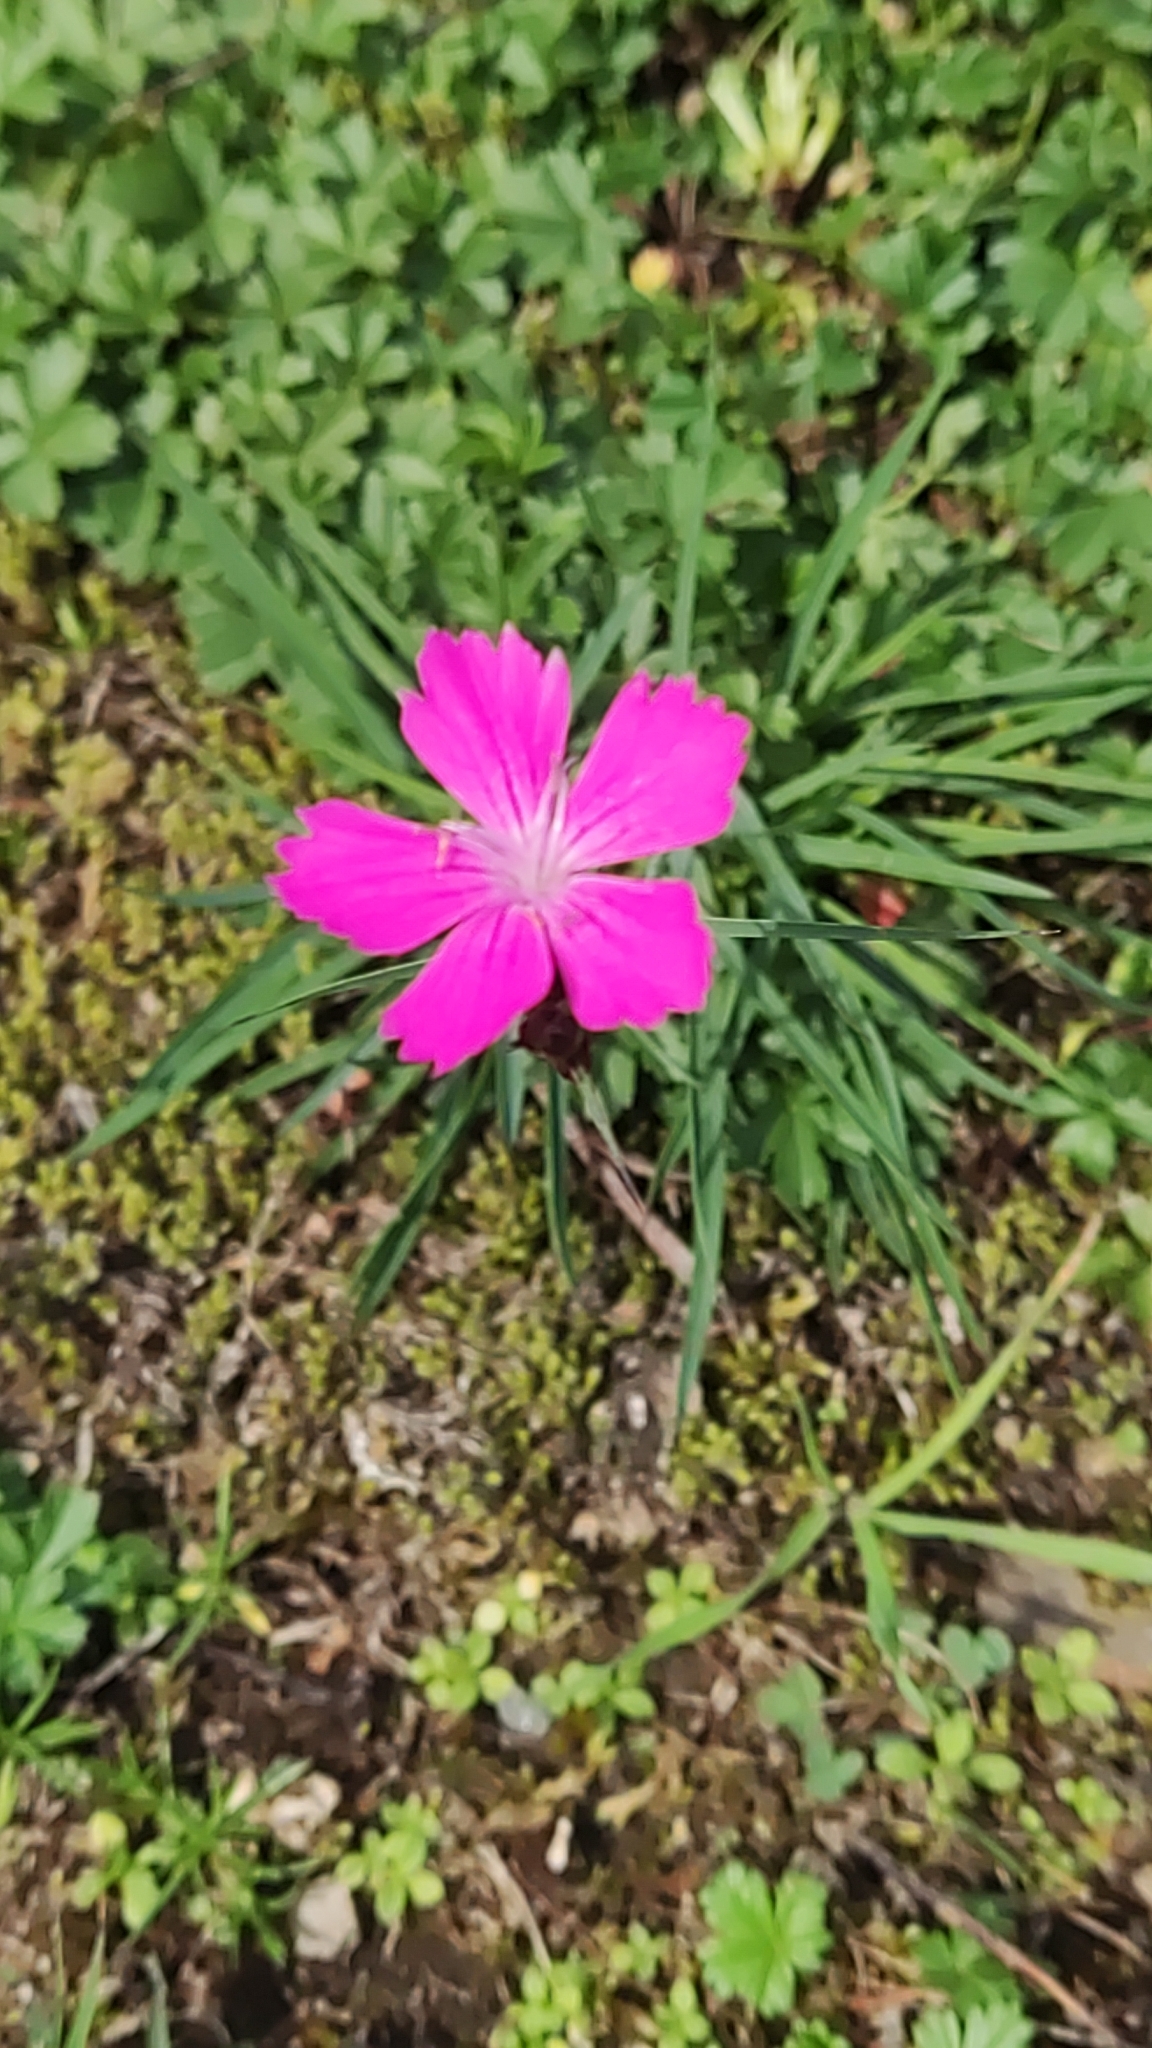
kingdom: Plantae
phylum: Tracheophyta
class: Magnoliopsida
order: Caryophyllales
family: Caryophyllaceae
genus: Dianthus
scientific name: Dianthus carthusianorum
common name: Carthusian pink
